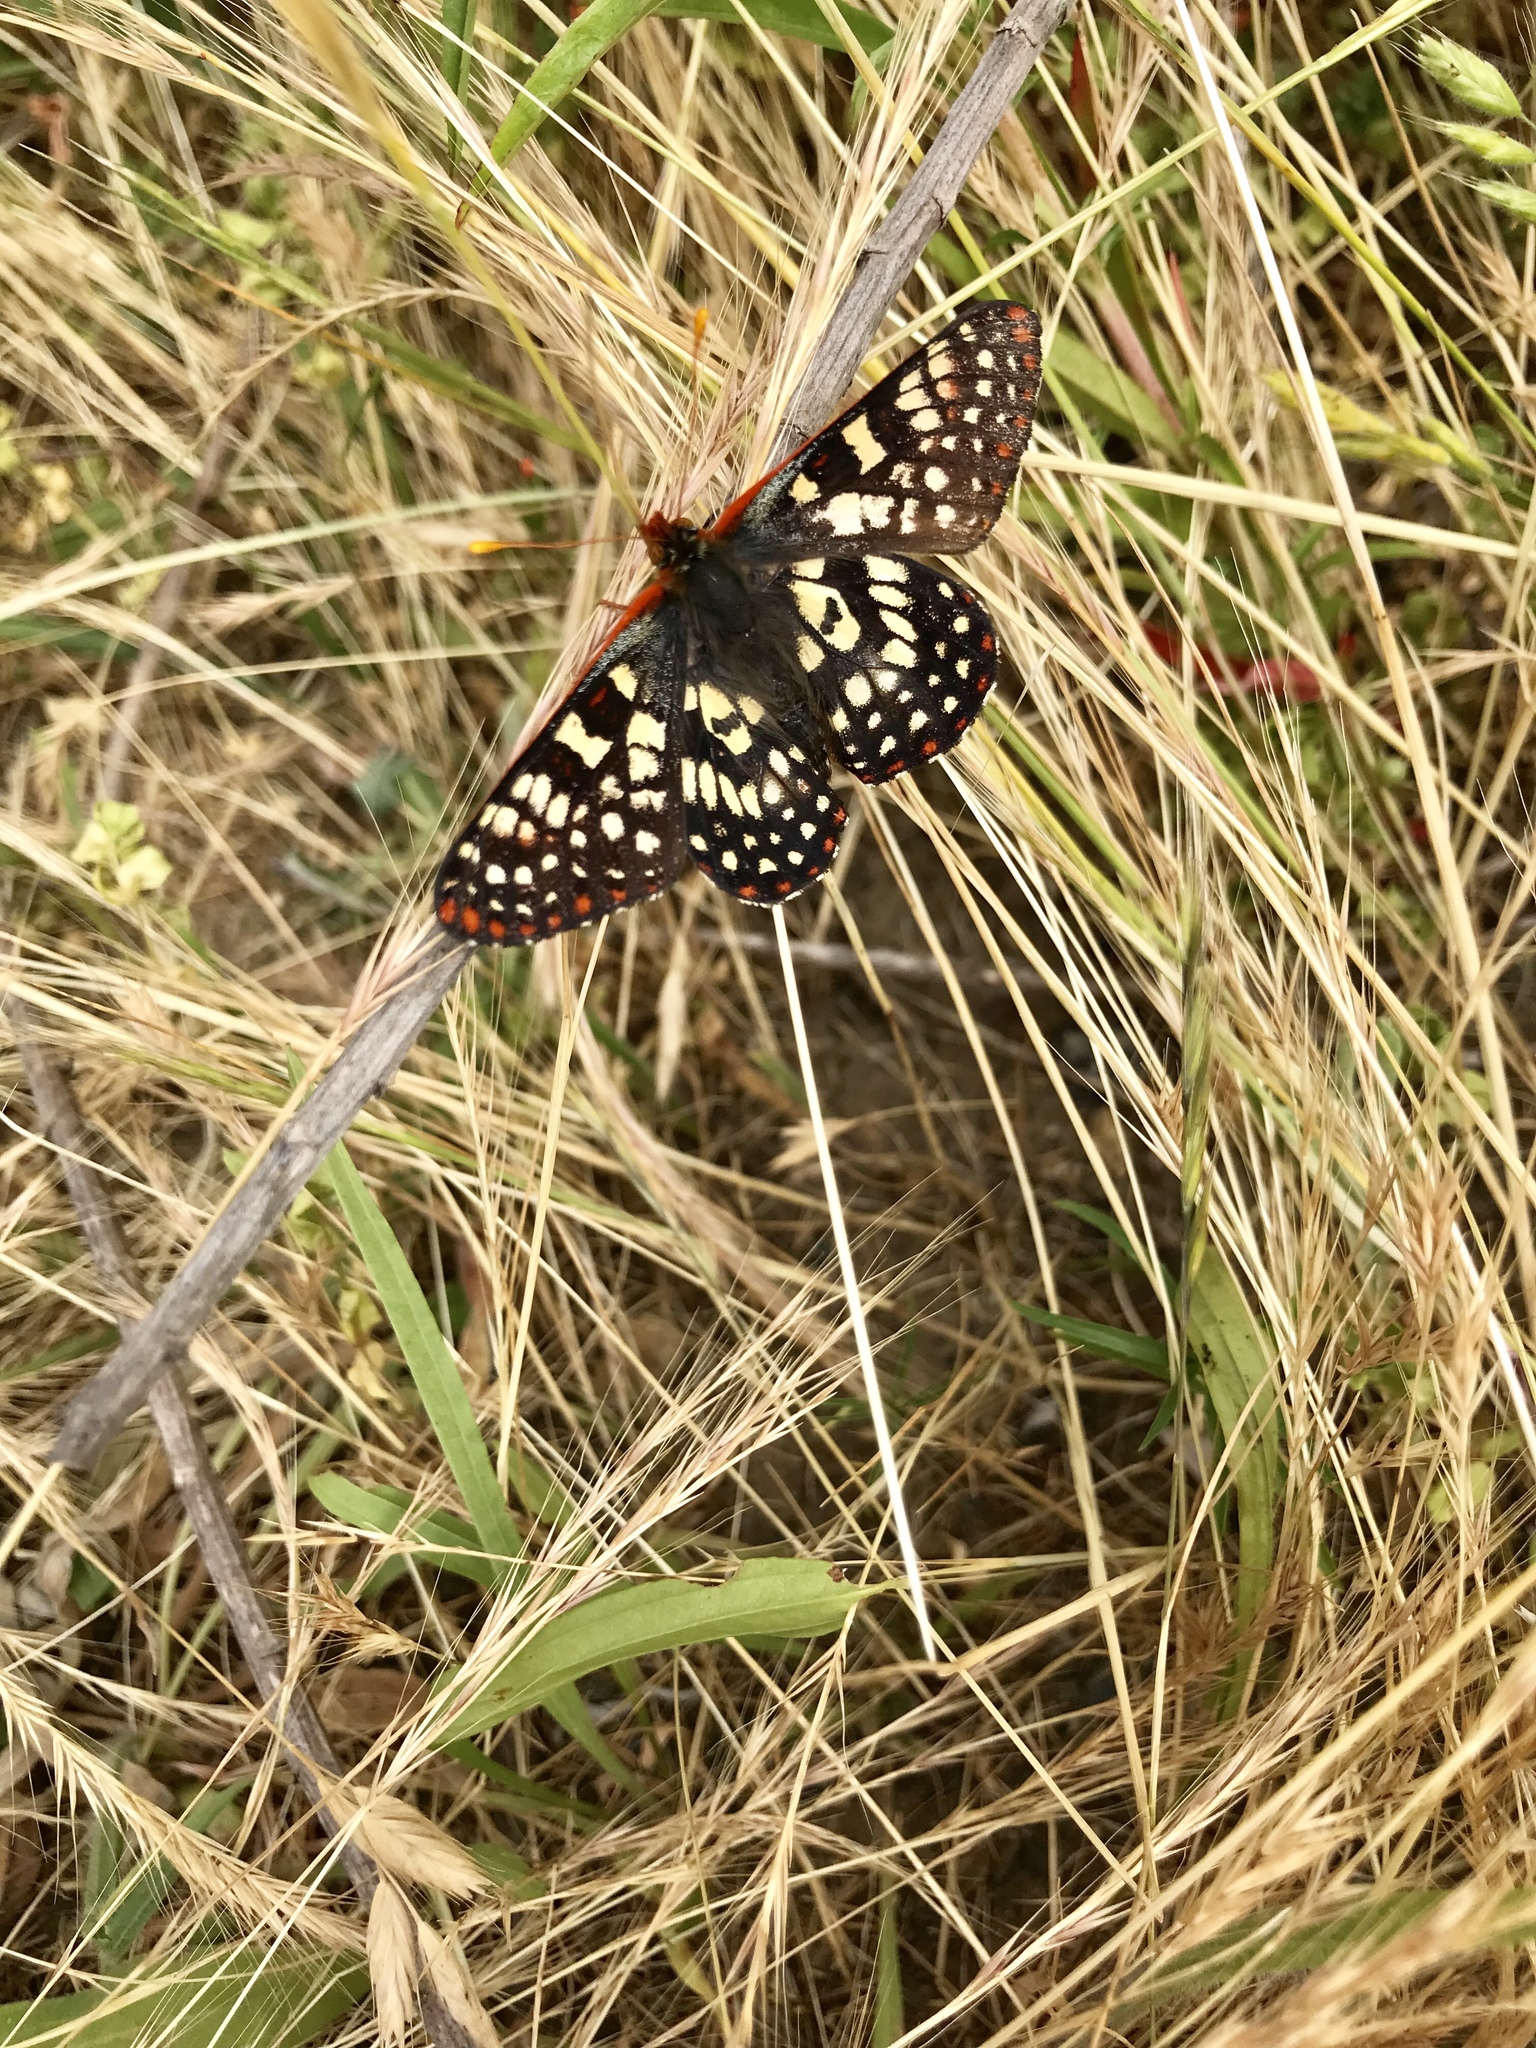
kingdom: Animalia
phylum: Arthropoda
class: Insecta
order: Lepidoptera
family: Nymphalidae
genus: Occidryas
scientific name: Occidryas chalcedona
